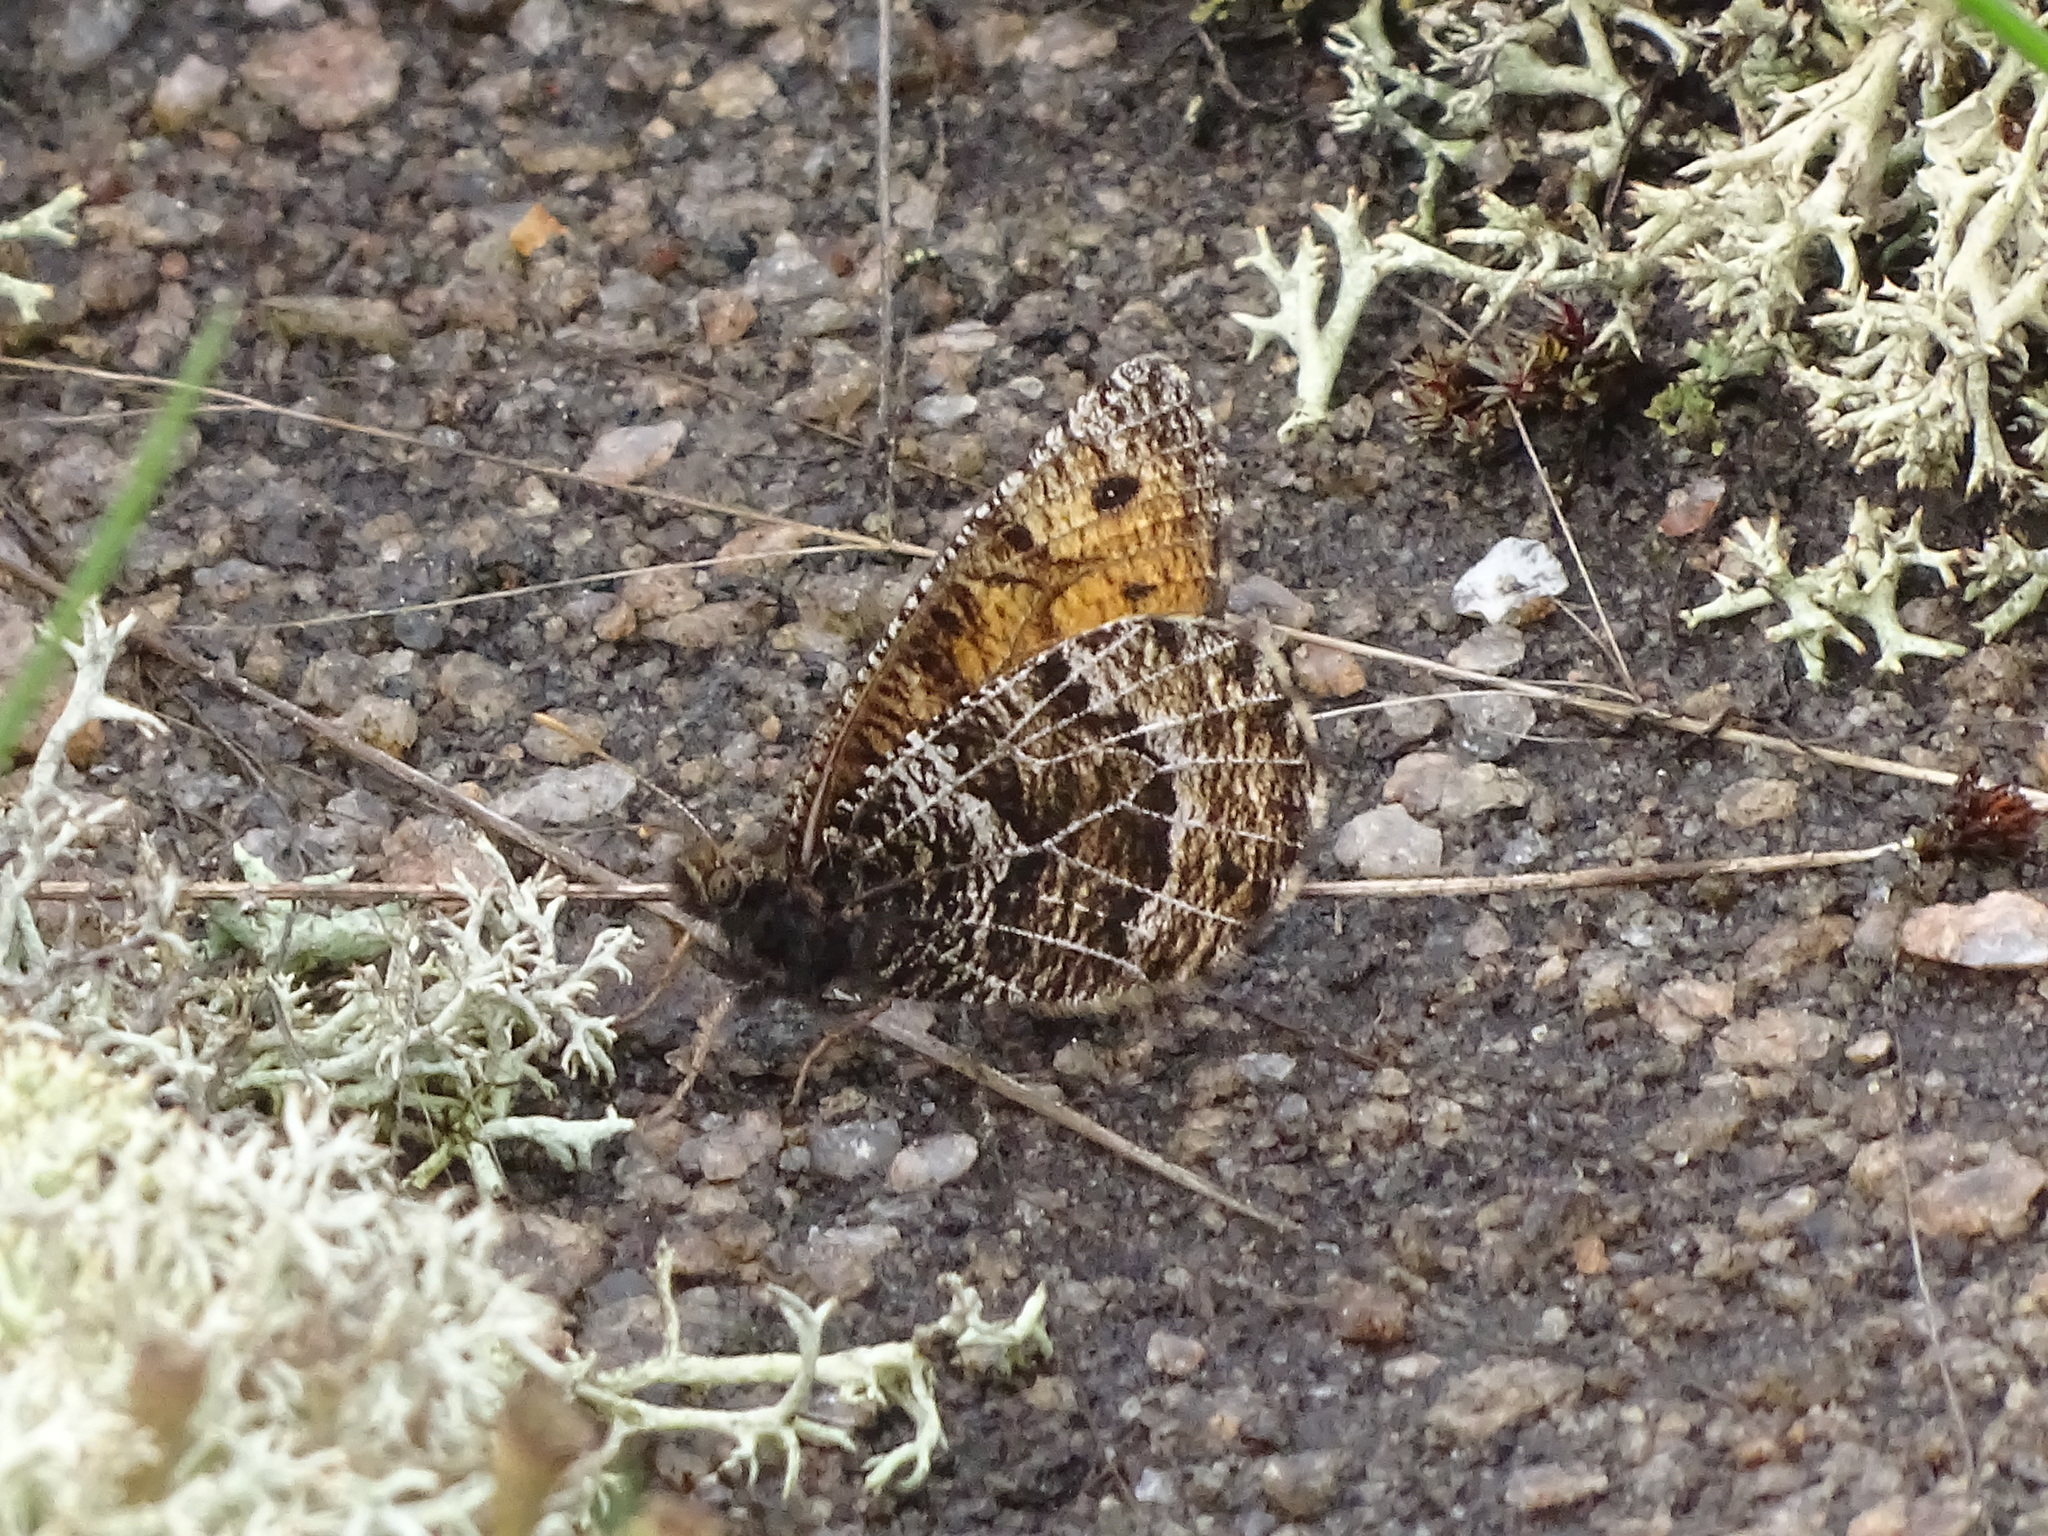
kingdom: Animalia
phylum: Arthropoda
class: Insecta
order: Lepidoptera
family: Nymphalidae
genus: Oeneis
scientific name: Oeneis chryxus
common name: Chryxus arctic
